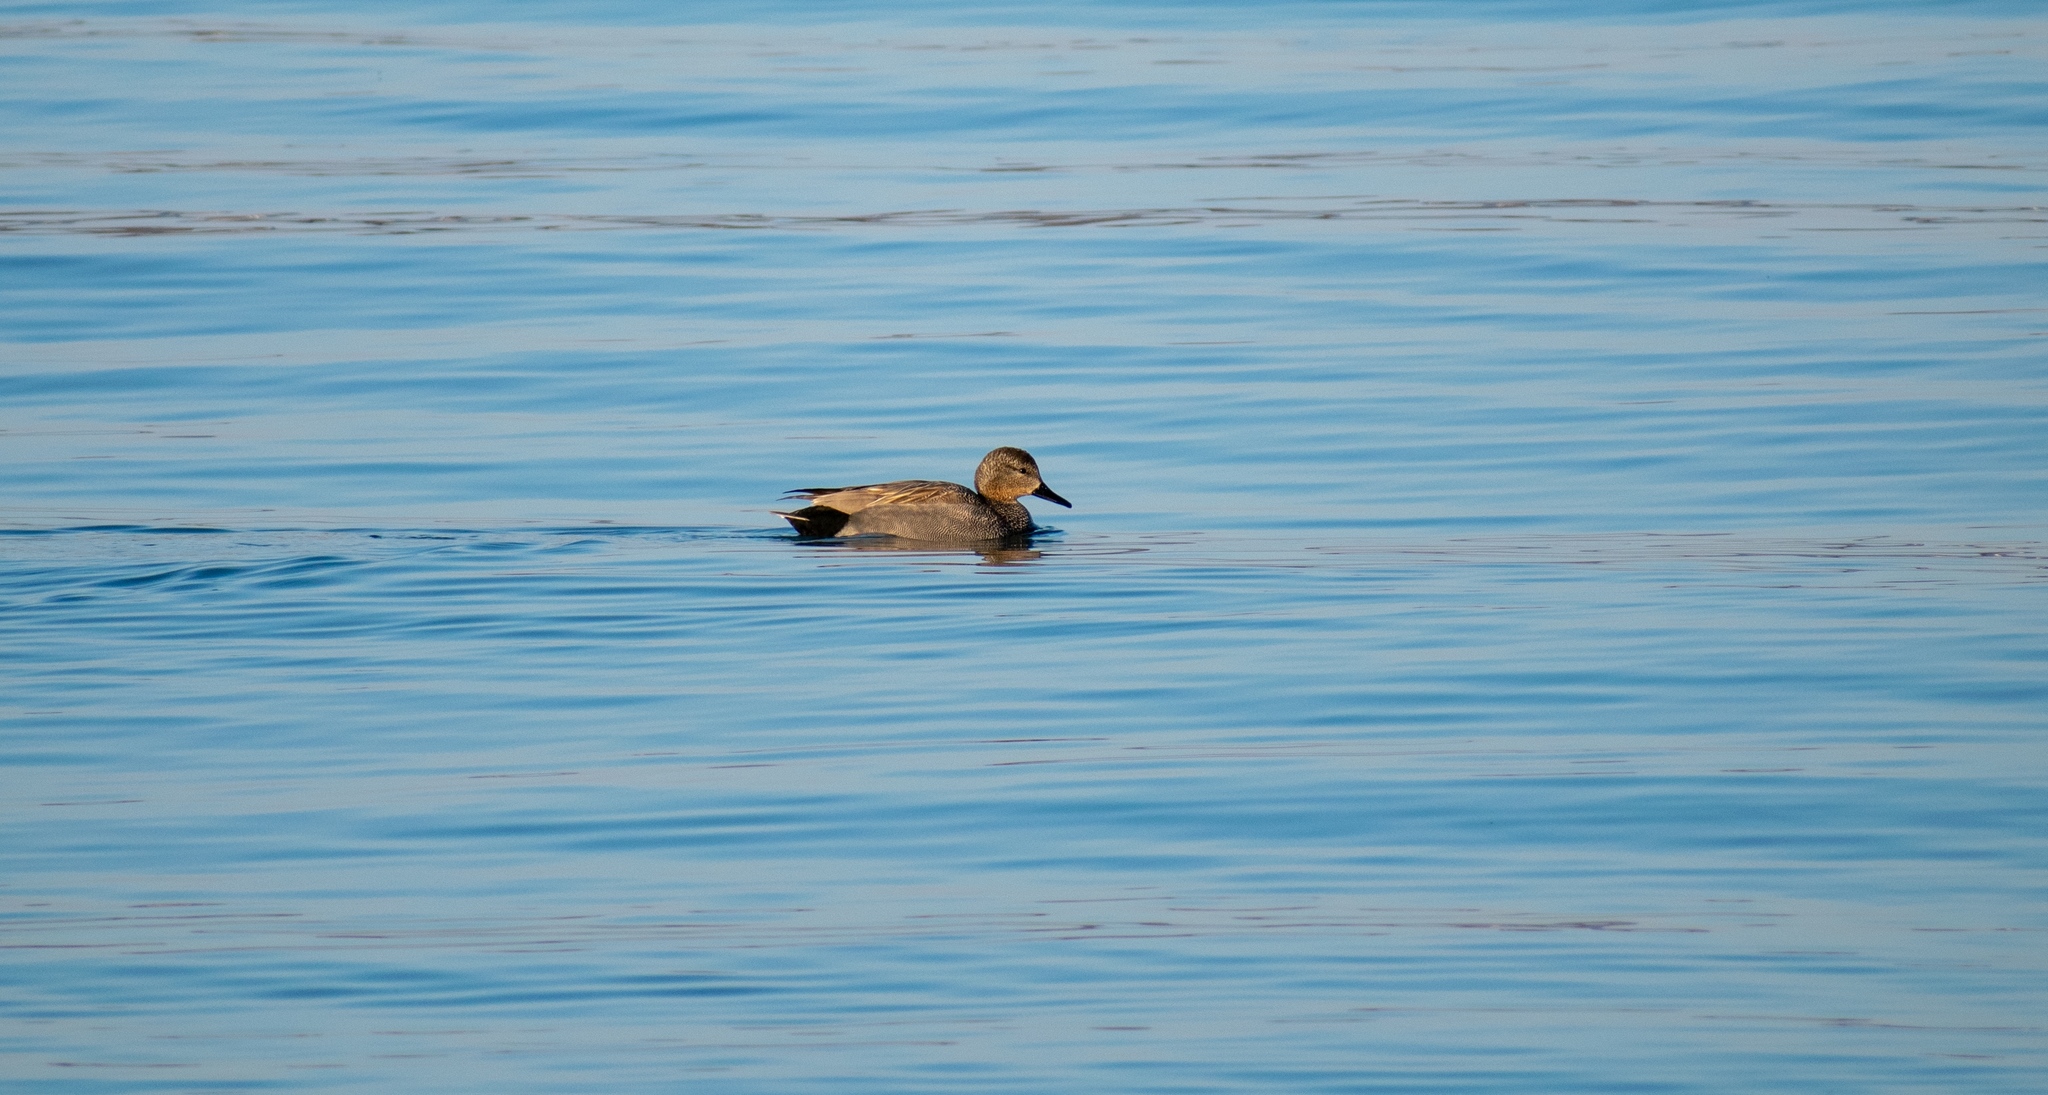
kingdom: Animalia
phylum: Chordata
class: Aves
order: Anseriformes
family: Anatidae
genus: Mareca
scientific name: Mareca strepera
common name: Gadwall
